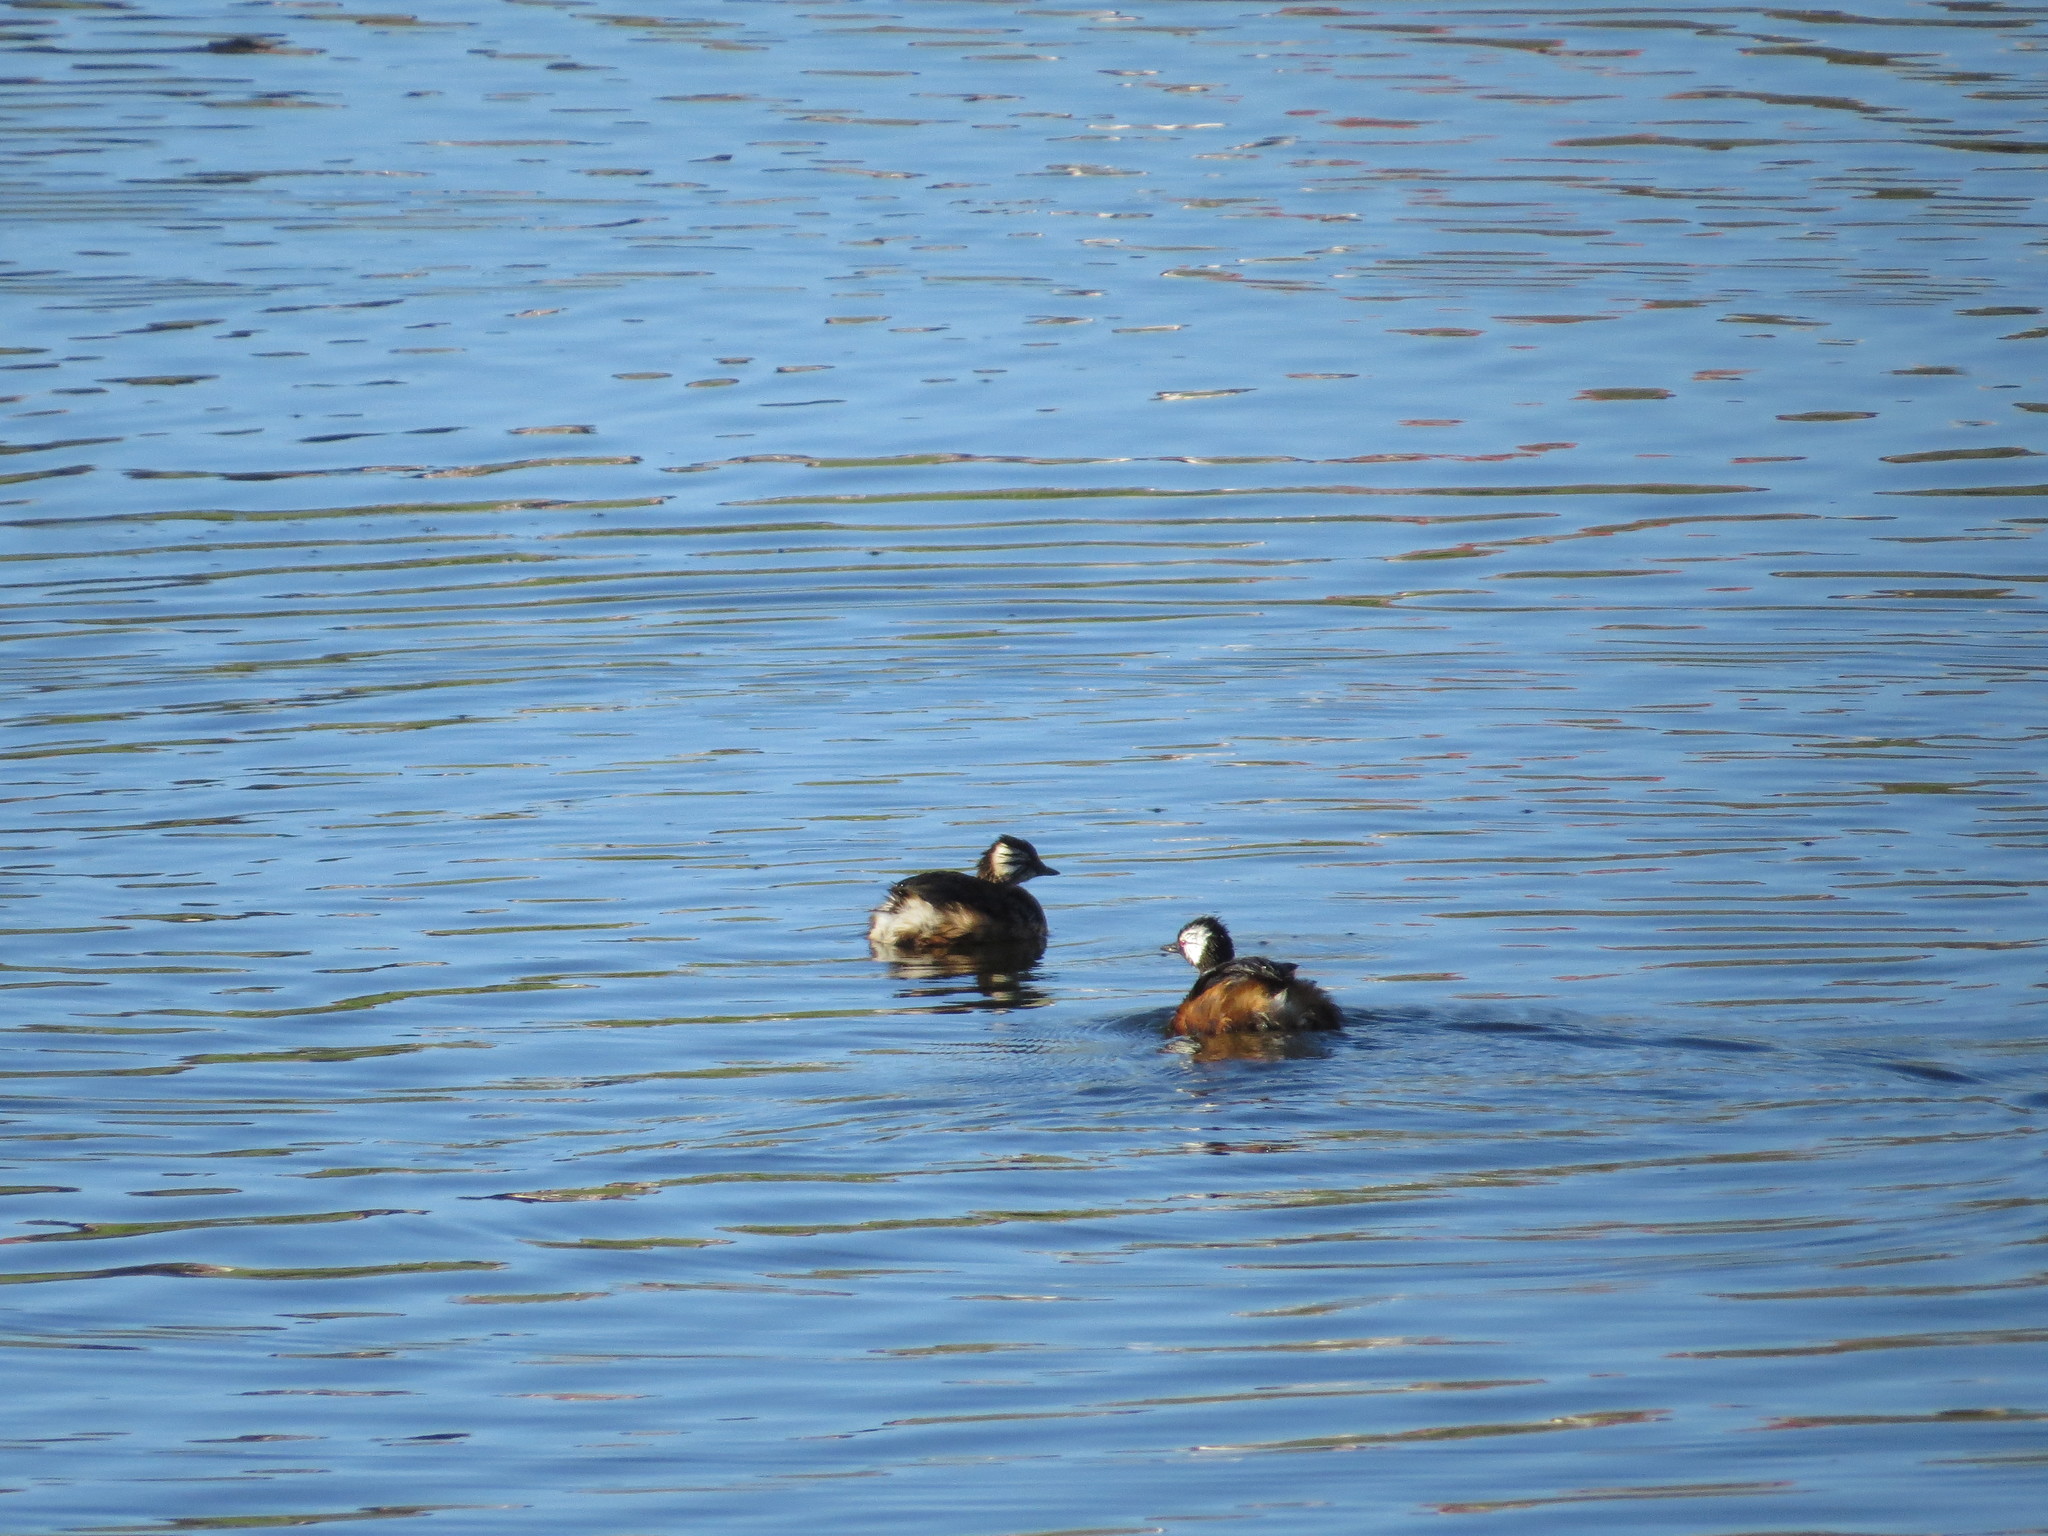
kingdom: Animalia
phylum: Chordata
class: Aves
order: Podicipediformes
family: Podicipedidae
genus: Rollandia
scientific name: Rollandia rolland
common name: White-tufted grebe
